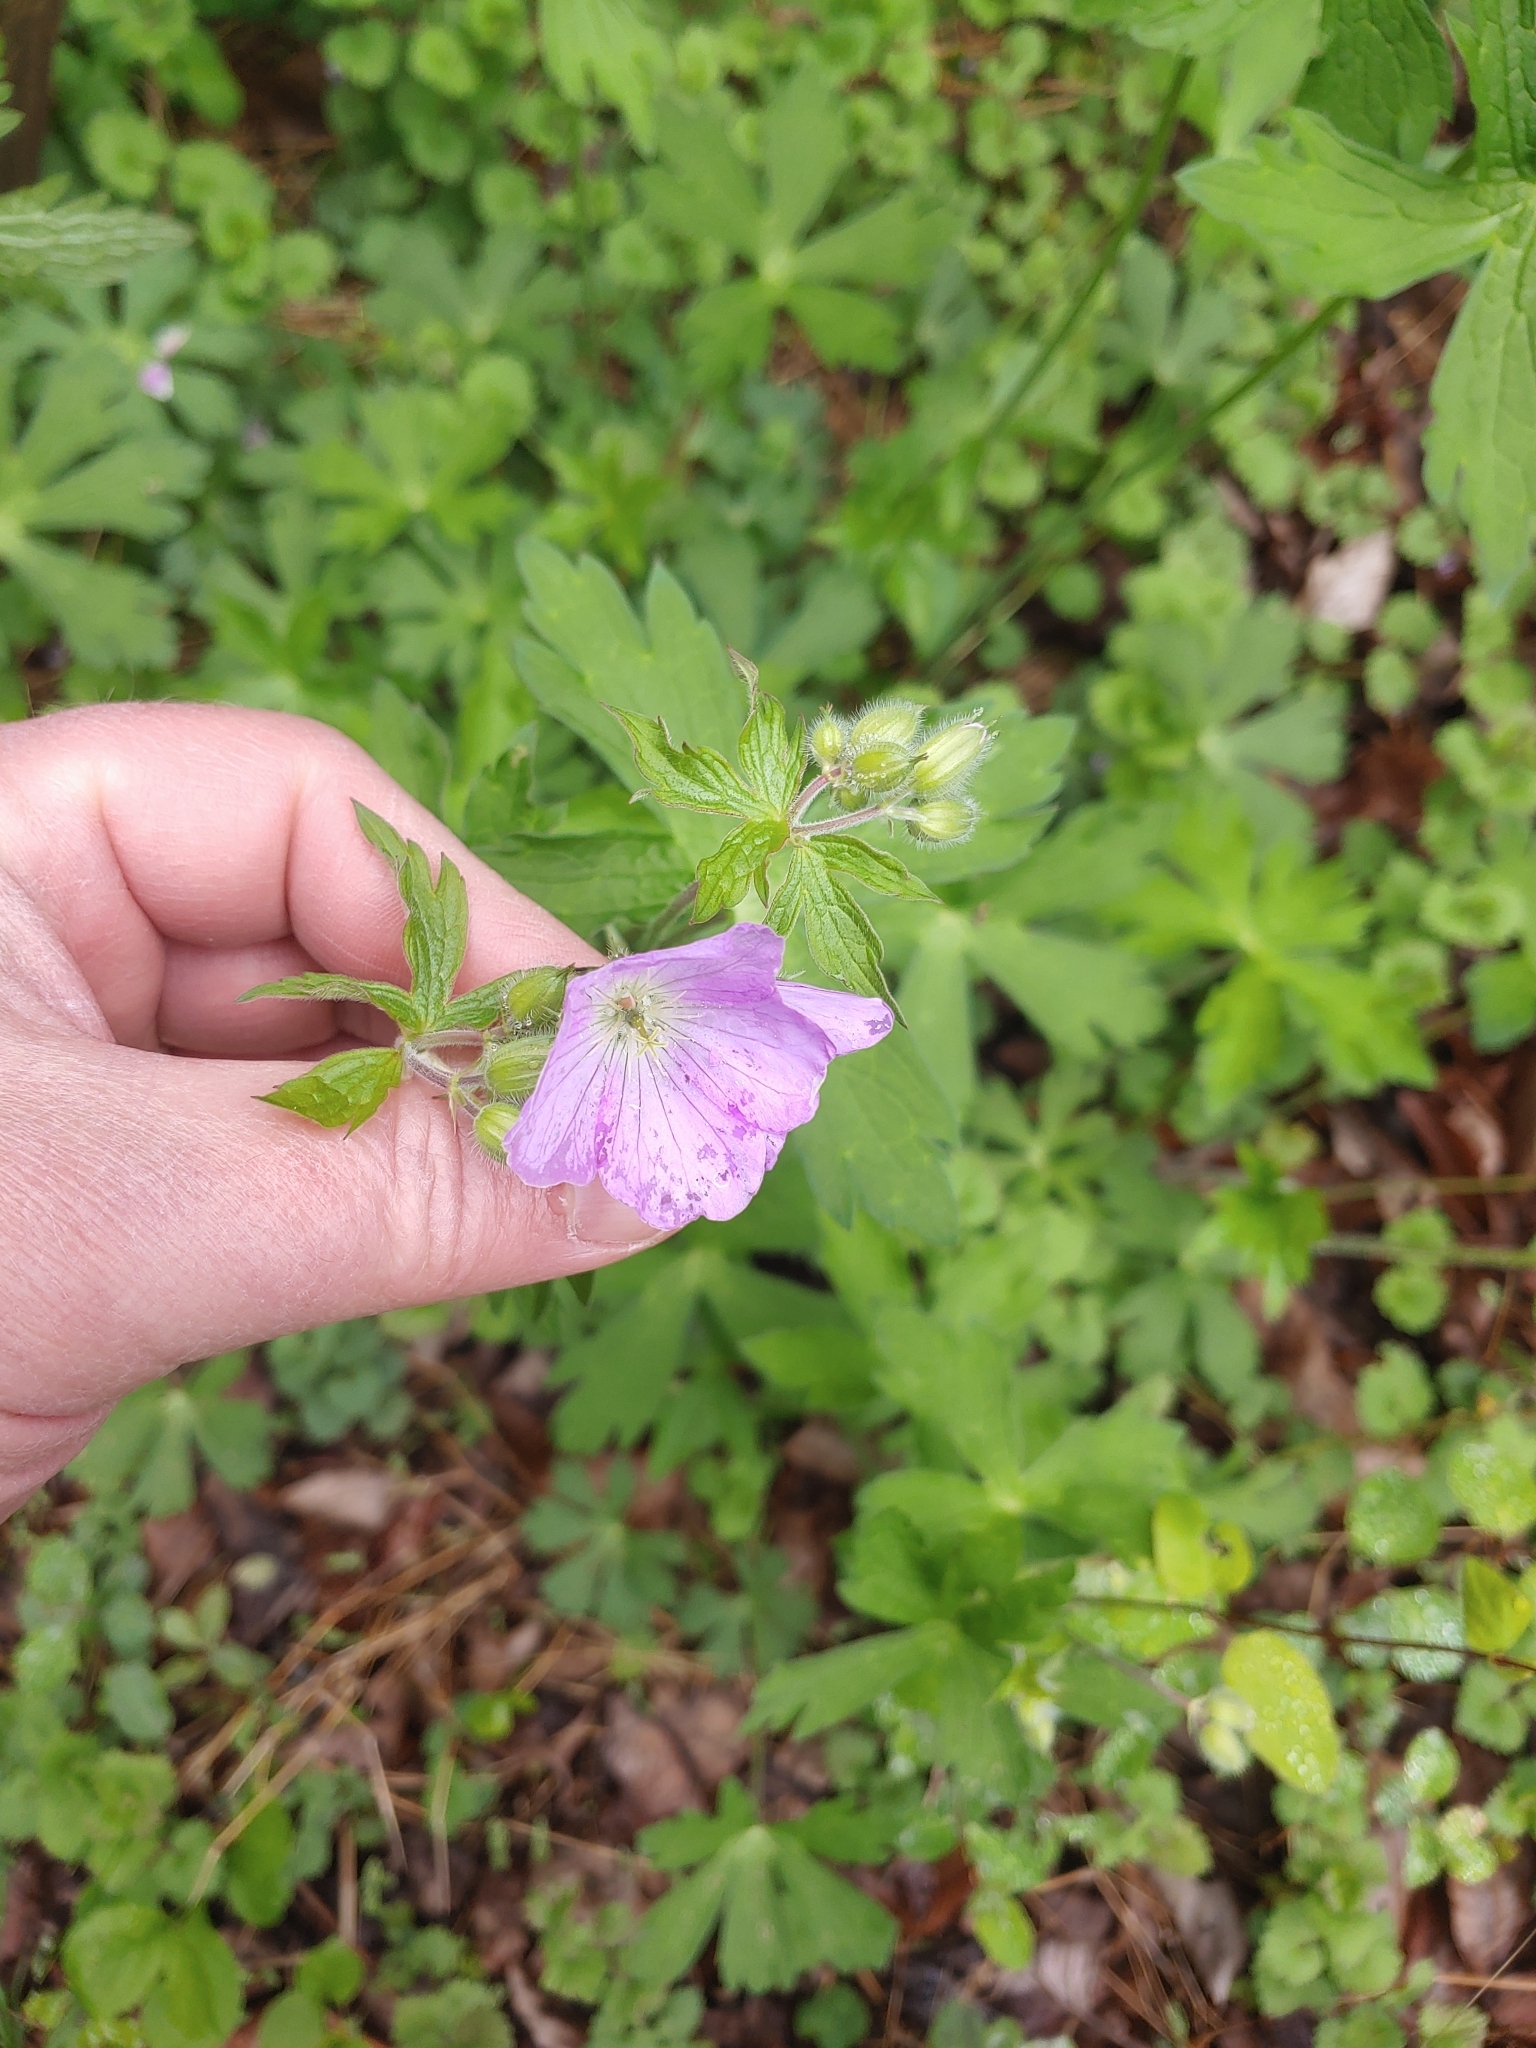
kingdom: Plantae
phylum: Tracheophyta
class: Magnoliopsida
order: Geraniales
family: Geraniaceae
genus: Geranium
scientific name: Geranium maculatum
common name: Spotted geranium
